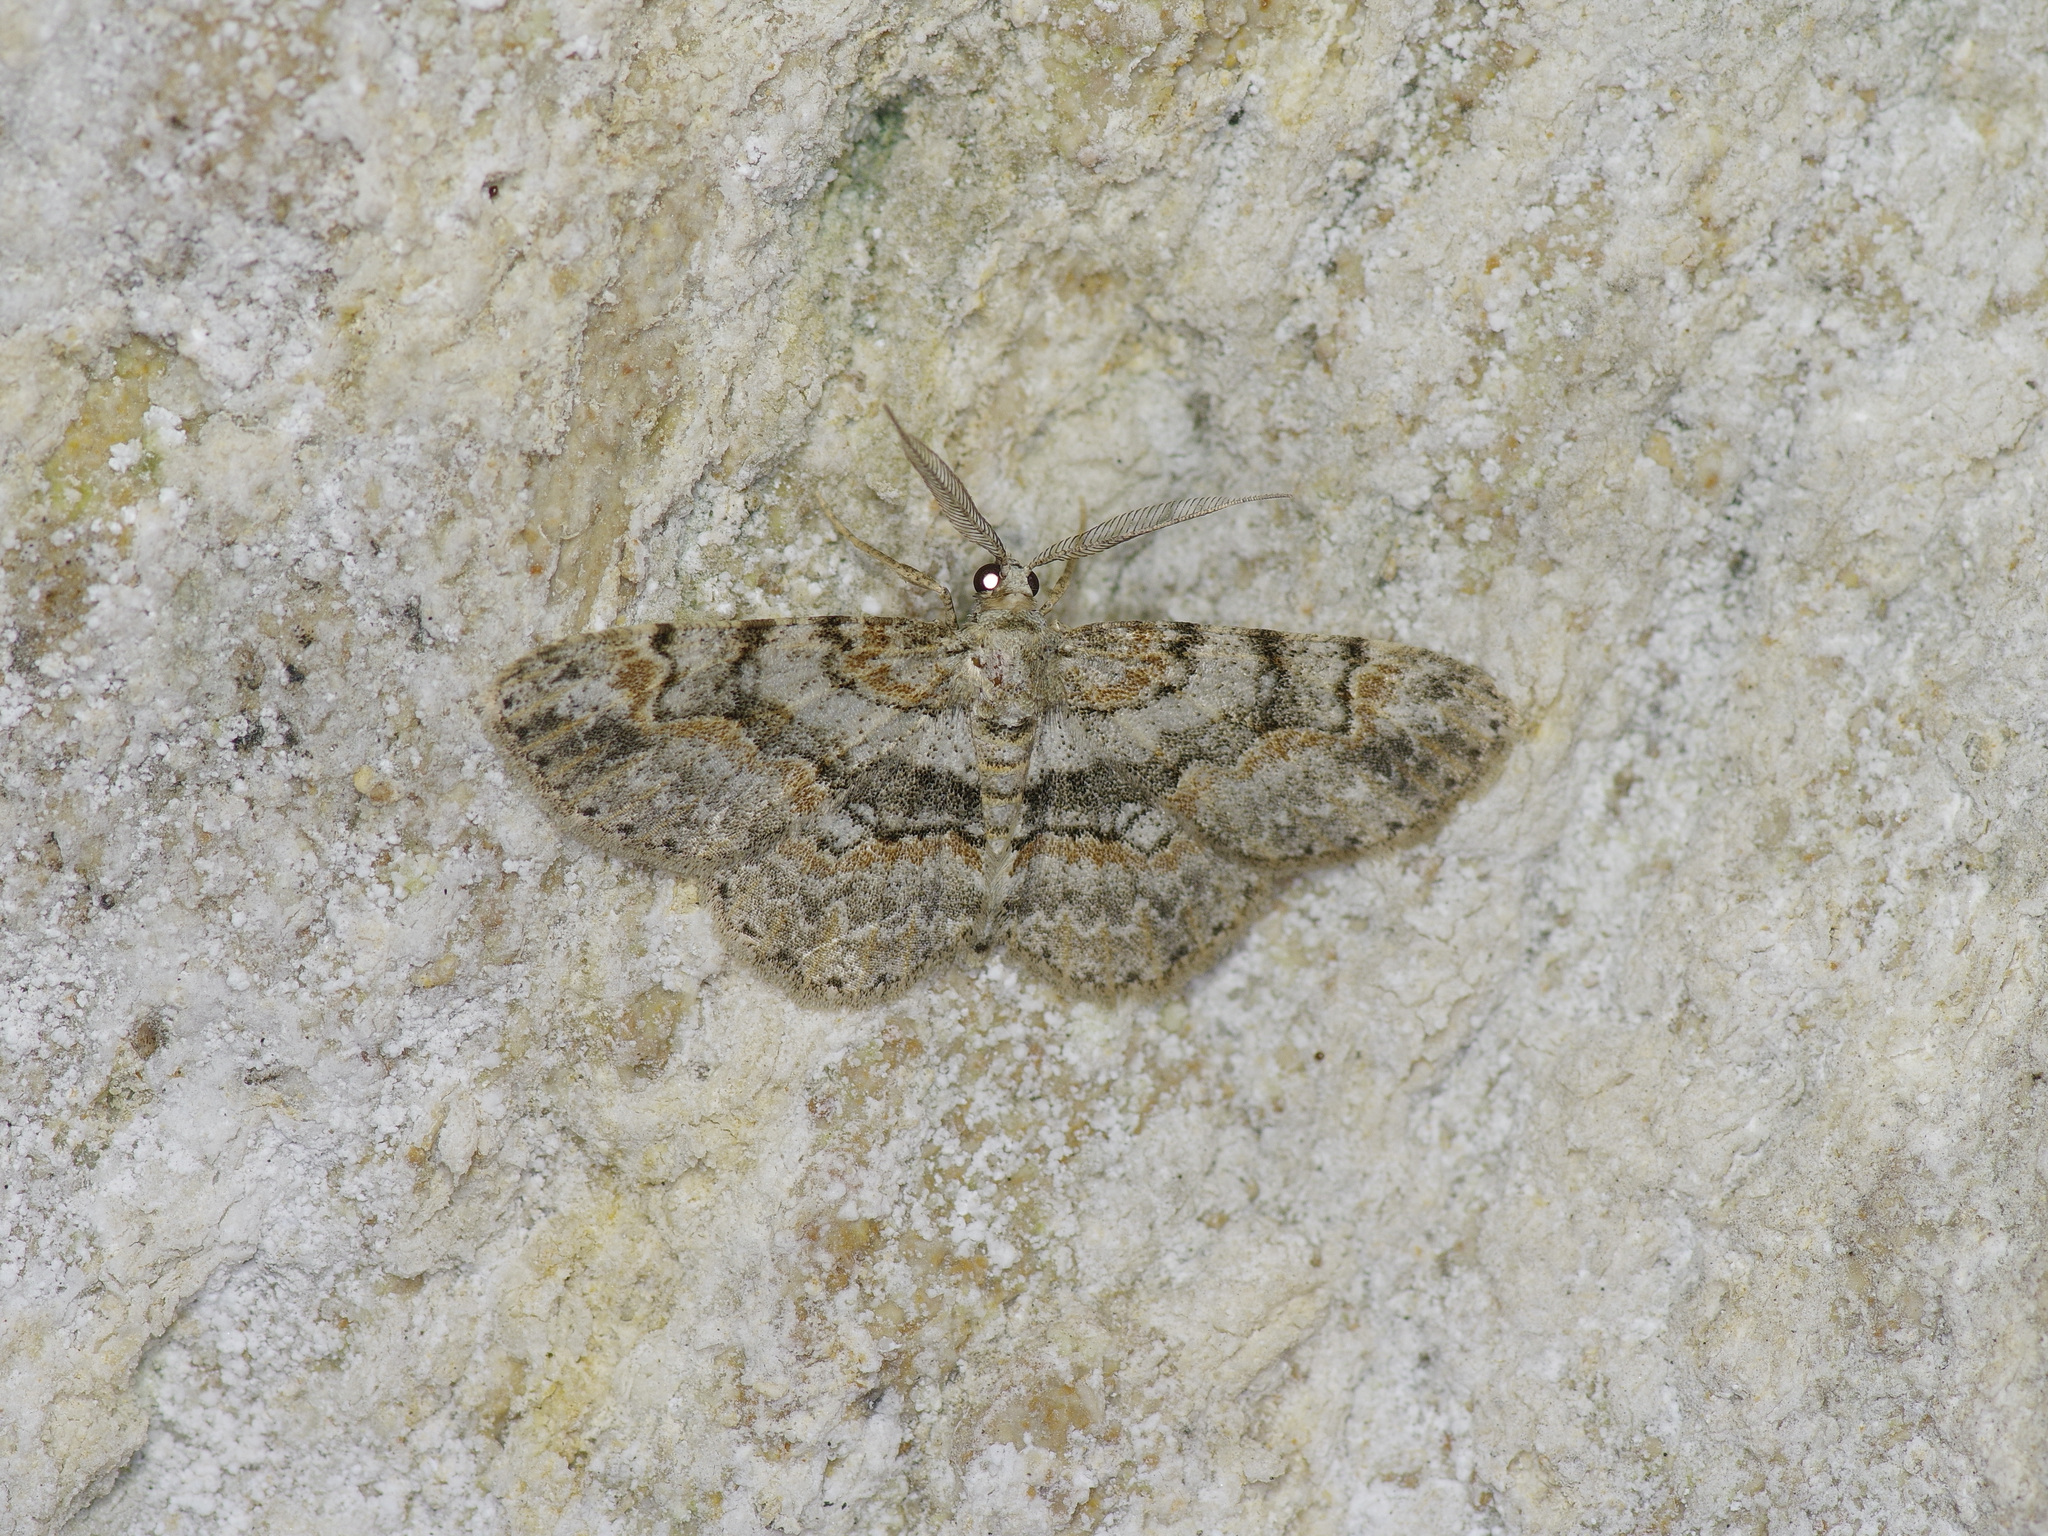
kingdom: Animalia
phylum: Arthropoda
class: Insecta
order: Lepidoptera
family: Geometridae
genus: Iridopsis
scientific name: Iridopsis ephyraria
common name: Pale-winged gray
